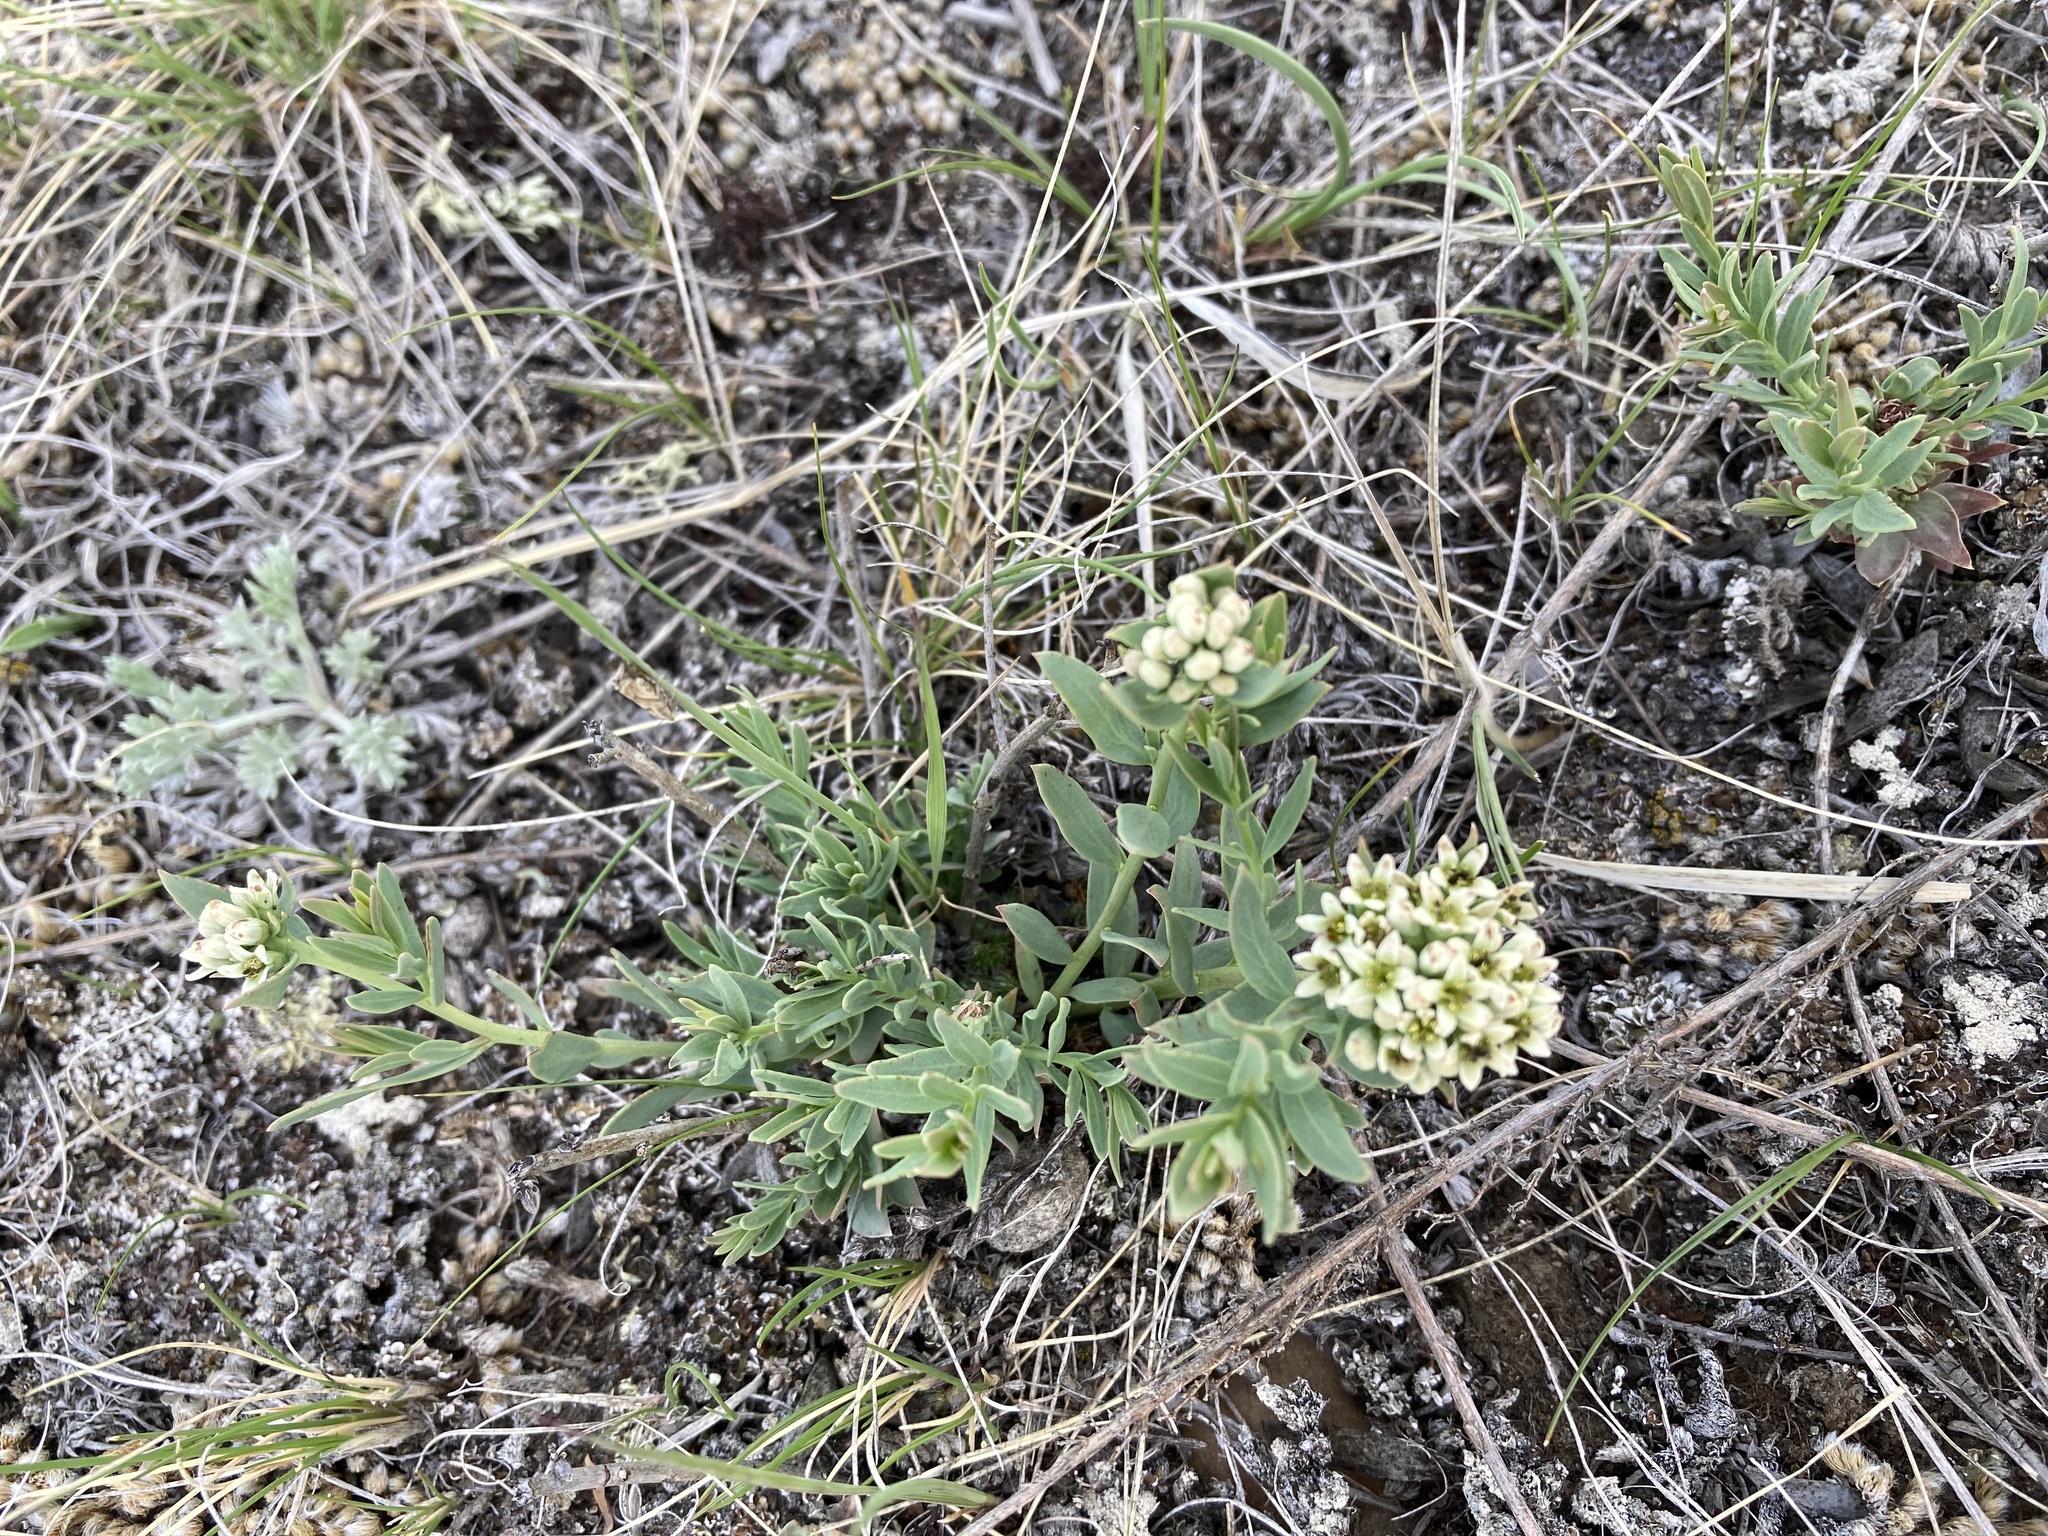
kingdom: Plantae
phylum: Tracheophyta
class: Magnoliopsida
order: Santalales
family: Comandraceae
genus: Comandra
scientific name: Comandra umbellata
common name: Bastard toadflax
